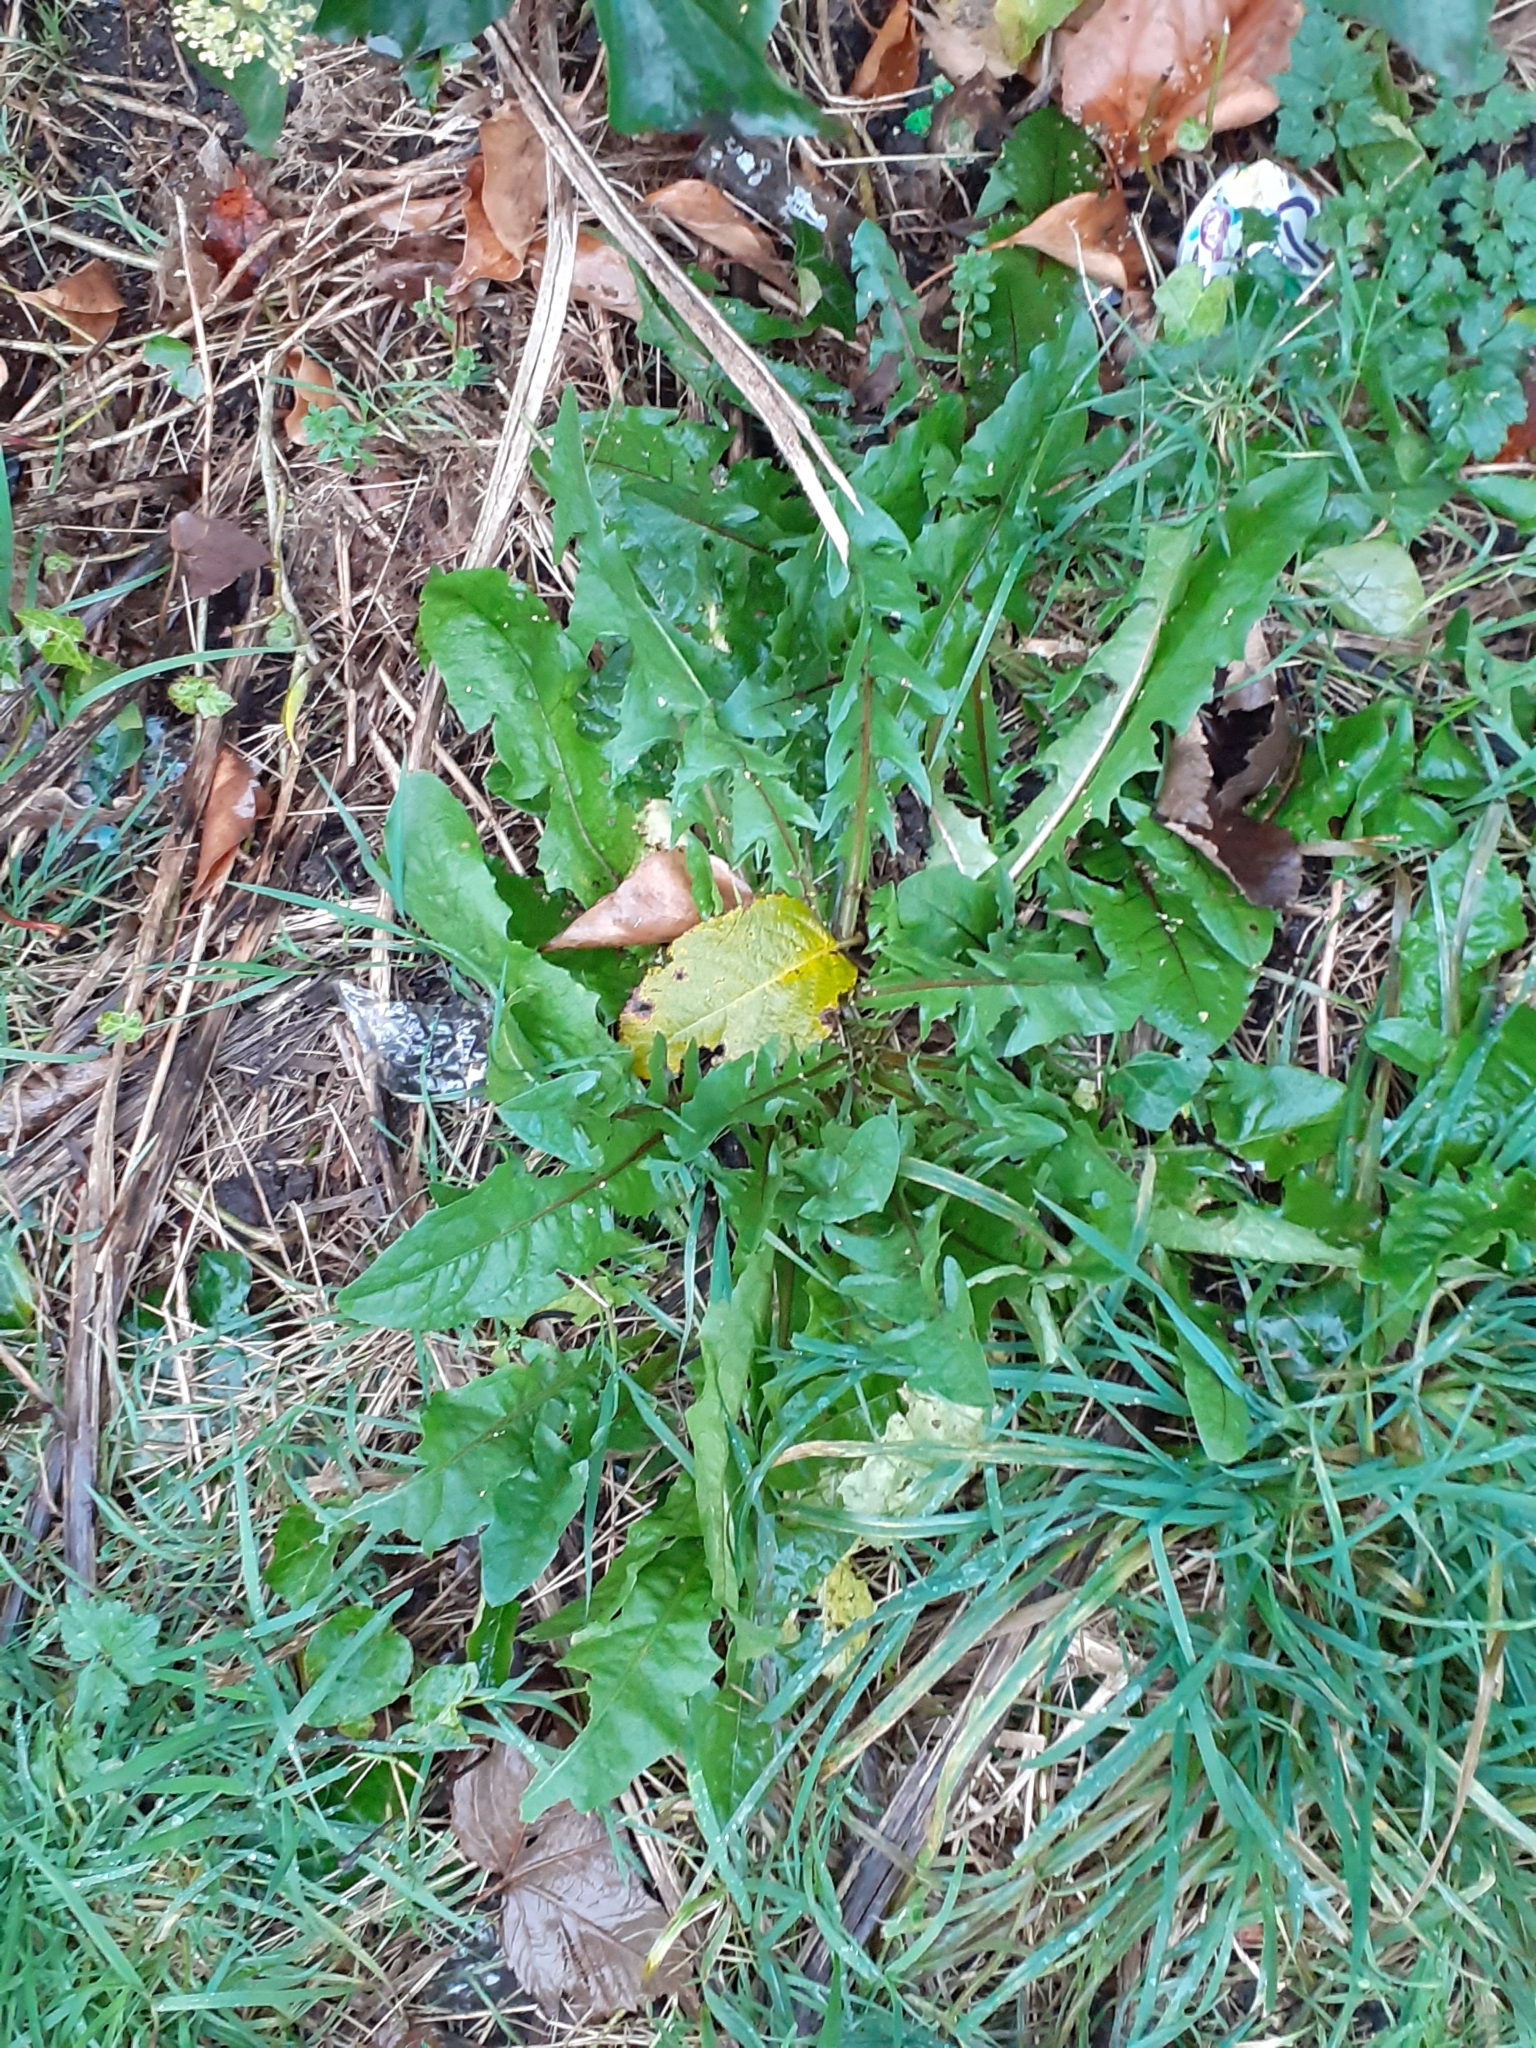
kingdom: Plantae
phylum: Tracheophyta
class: Magnoliopsida
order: Asterales
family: Asteraceae
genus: Taraxacum
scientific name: Taraxacum officinale
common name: Common dandelion
